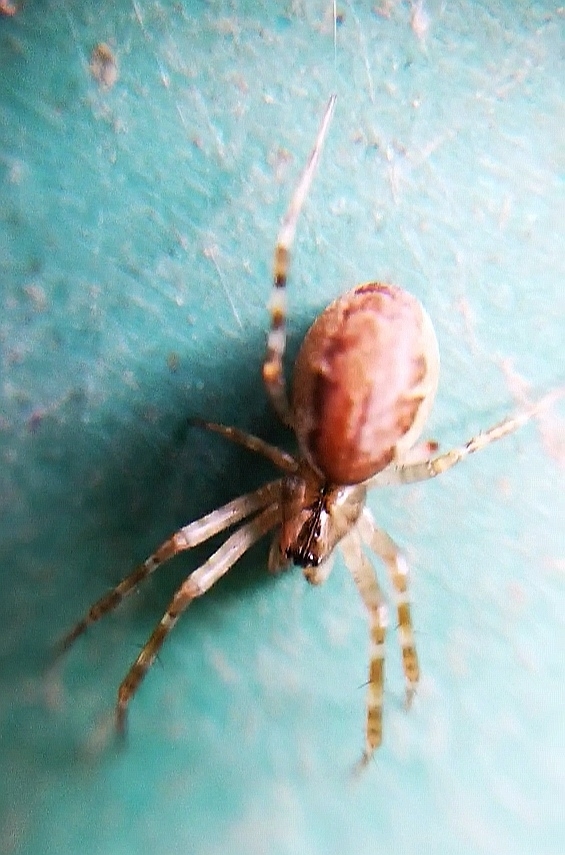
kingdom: Animalia
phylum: Arthropoda
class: Arachnida
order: Araneae
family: Linyphiidae
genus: Neriene
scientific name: Neriene montana
